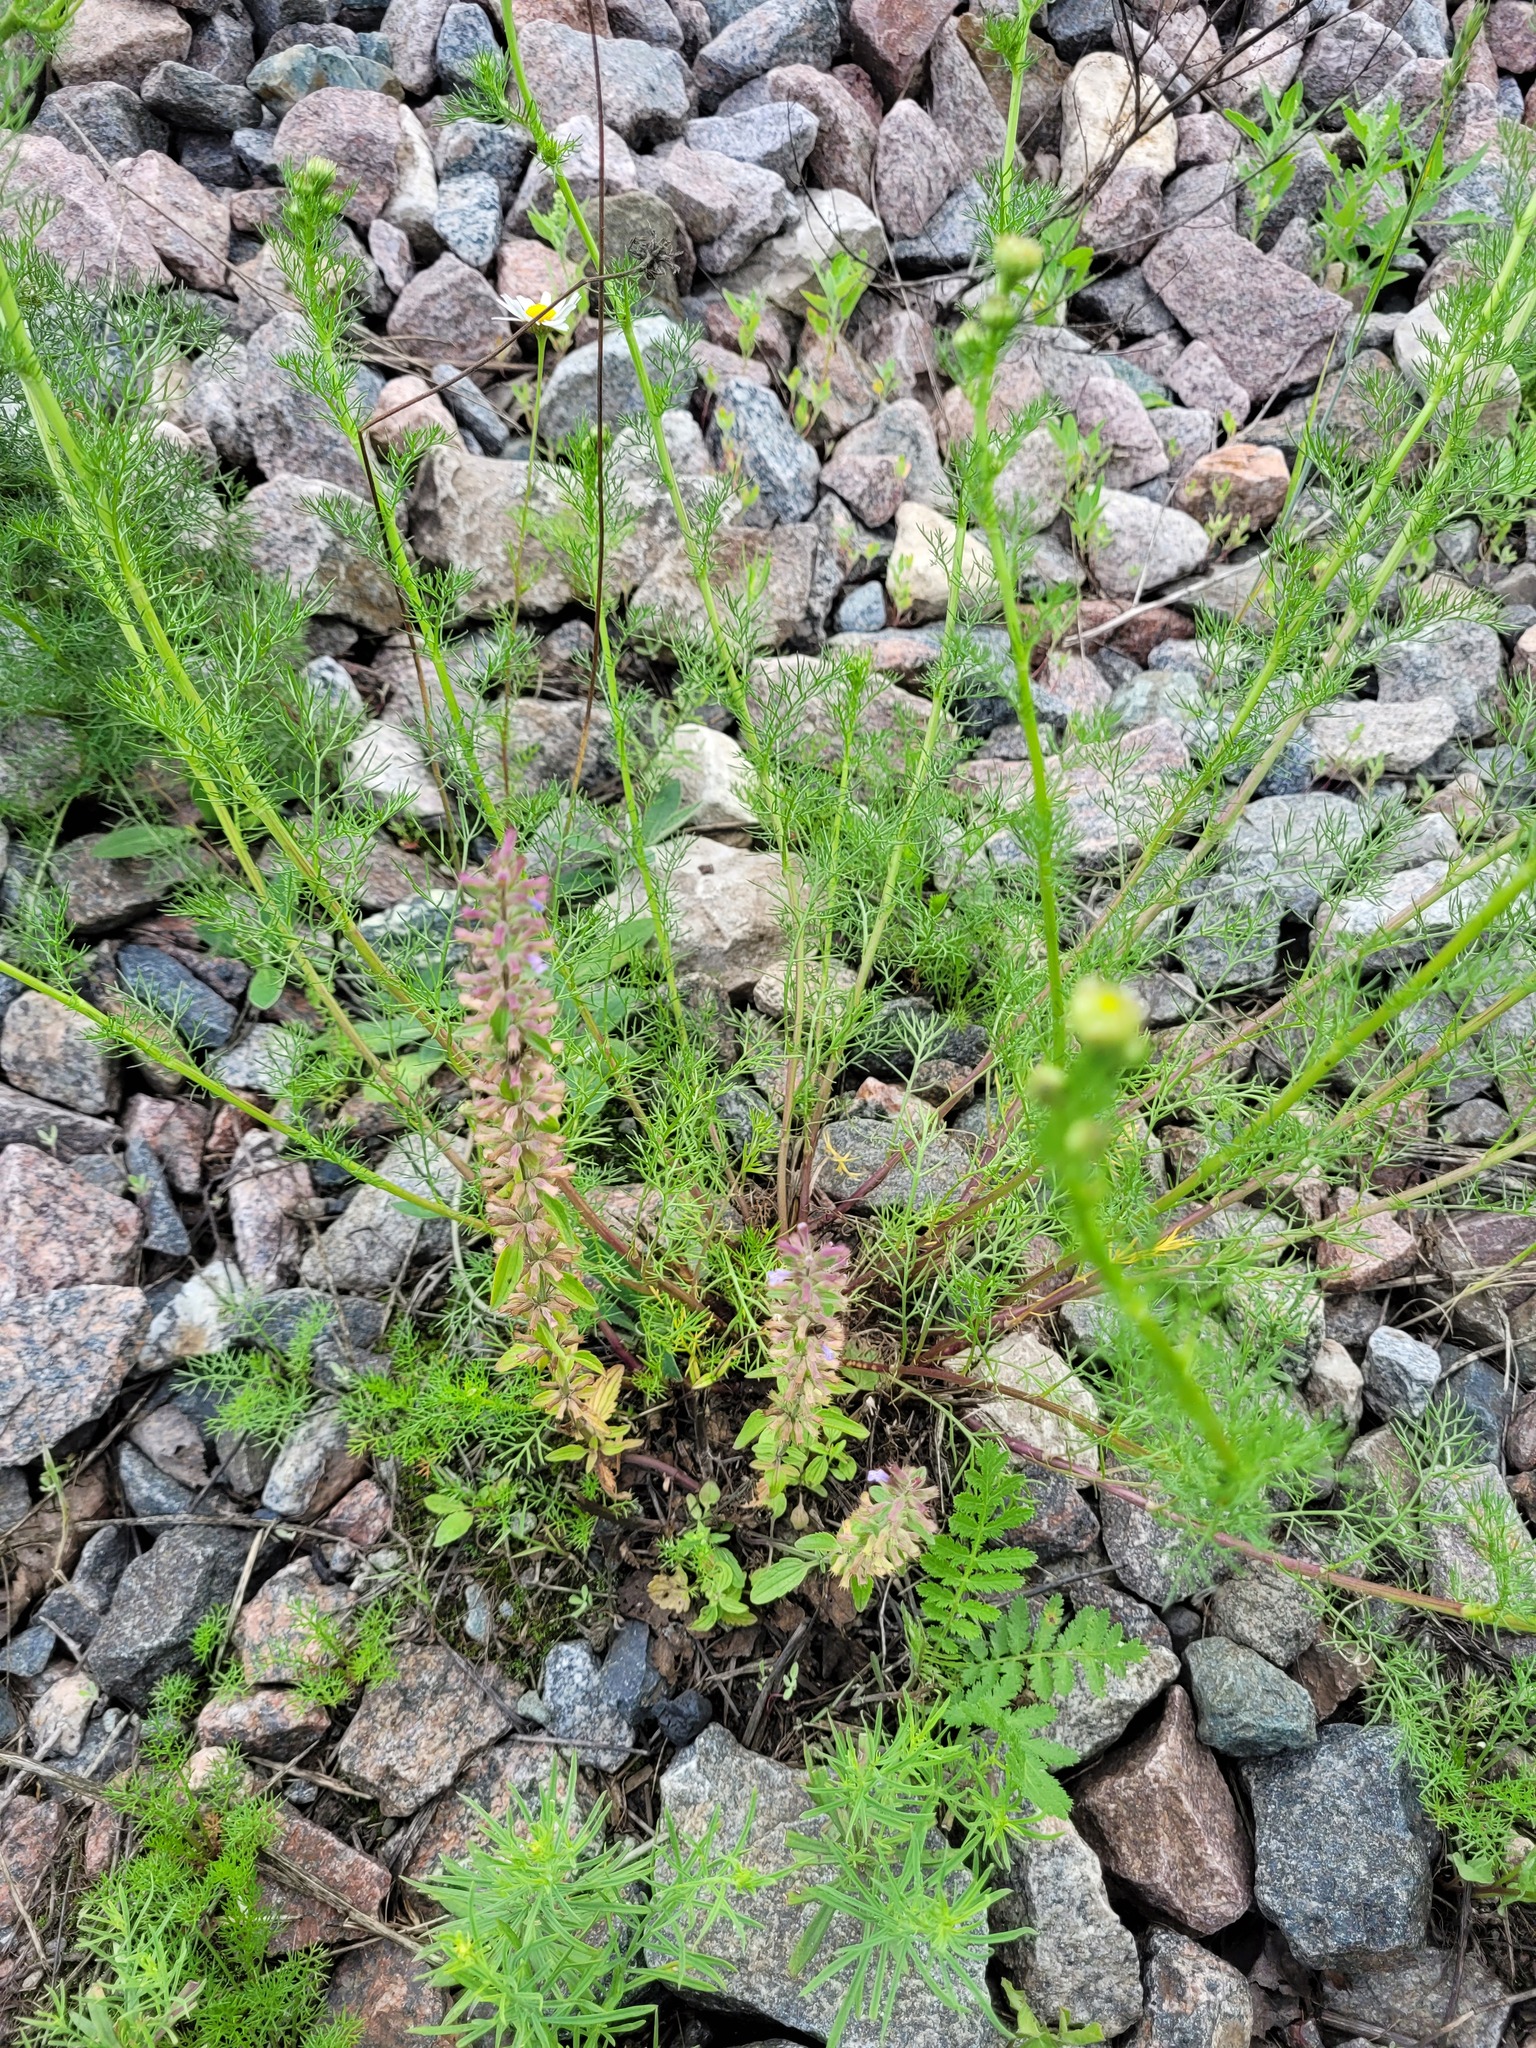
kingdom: Plantae
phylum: Tracheophyta
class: Magnoliopsida
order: Asterales
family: Asteraceae
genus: Tripleurospermum
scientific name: Tripleurospermum inodorum
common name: Scentless mayweed
